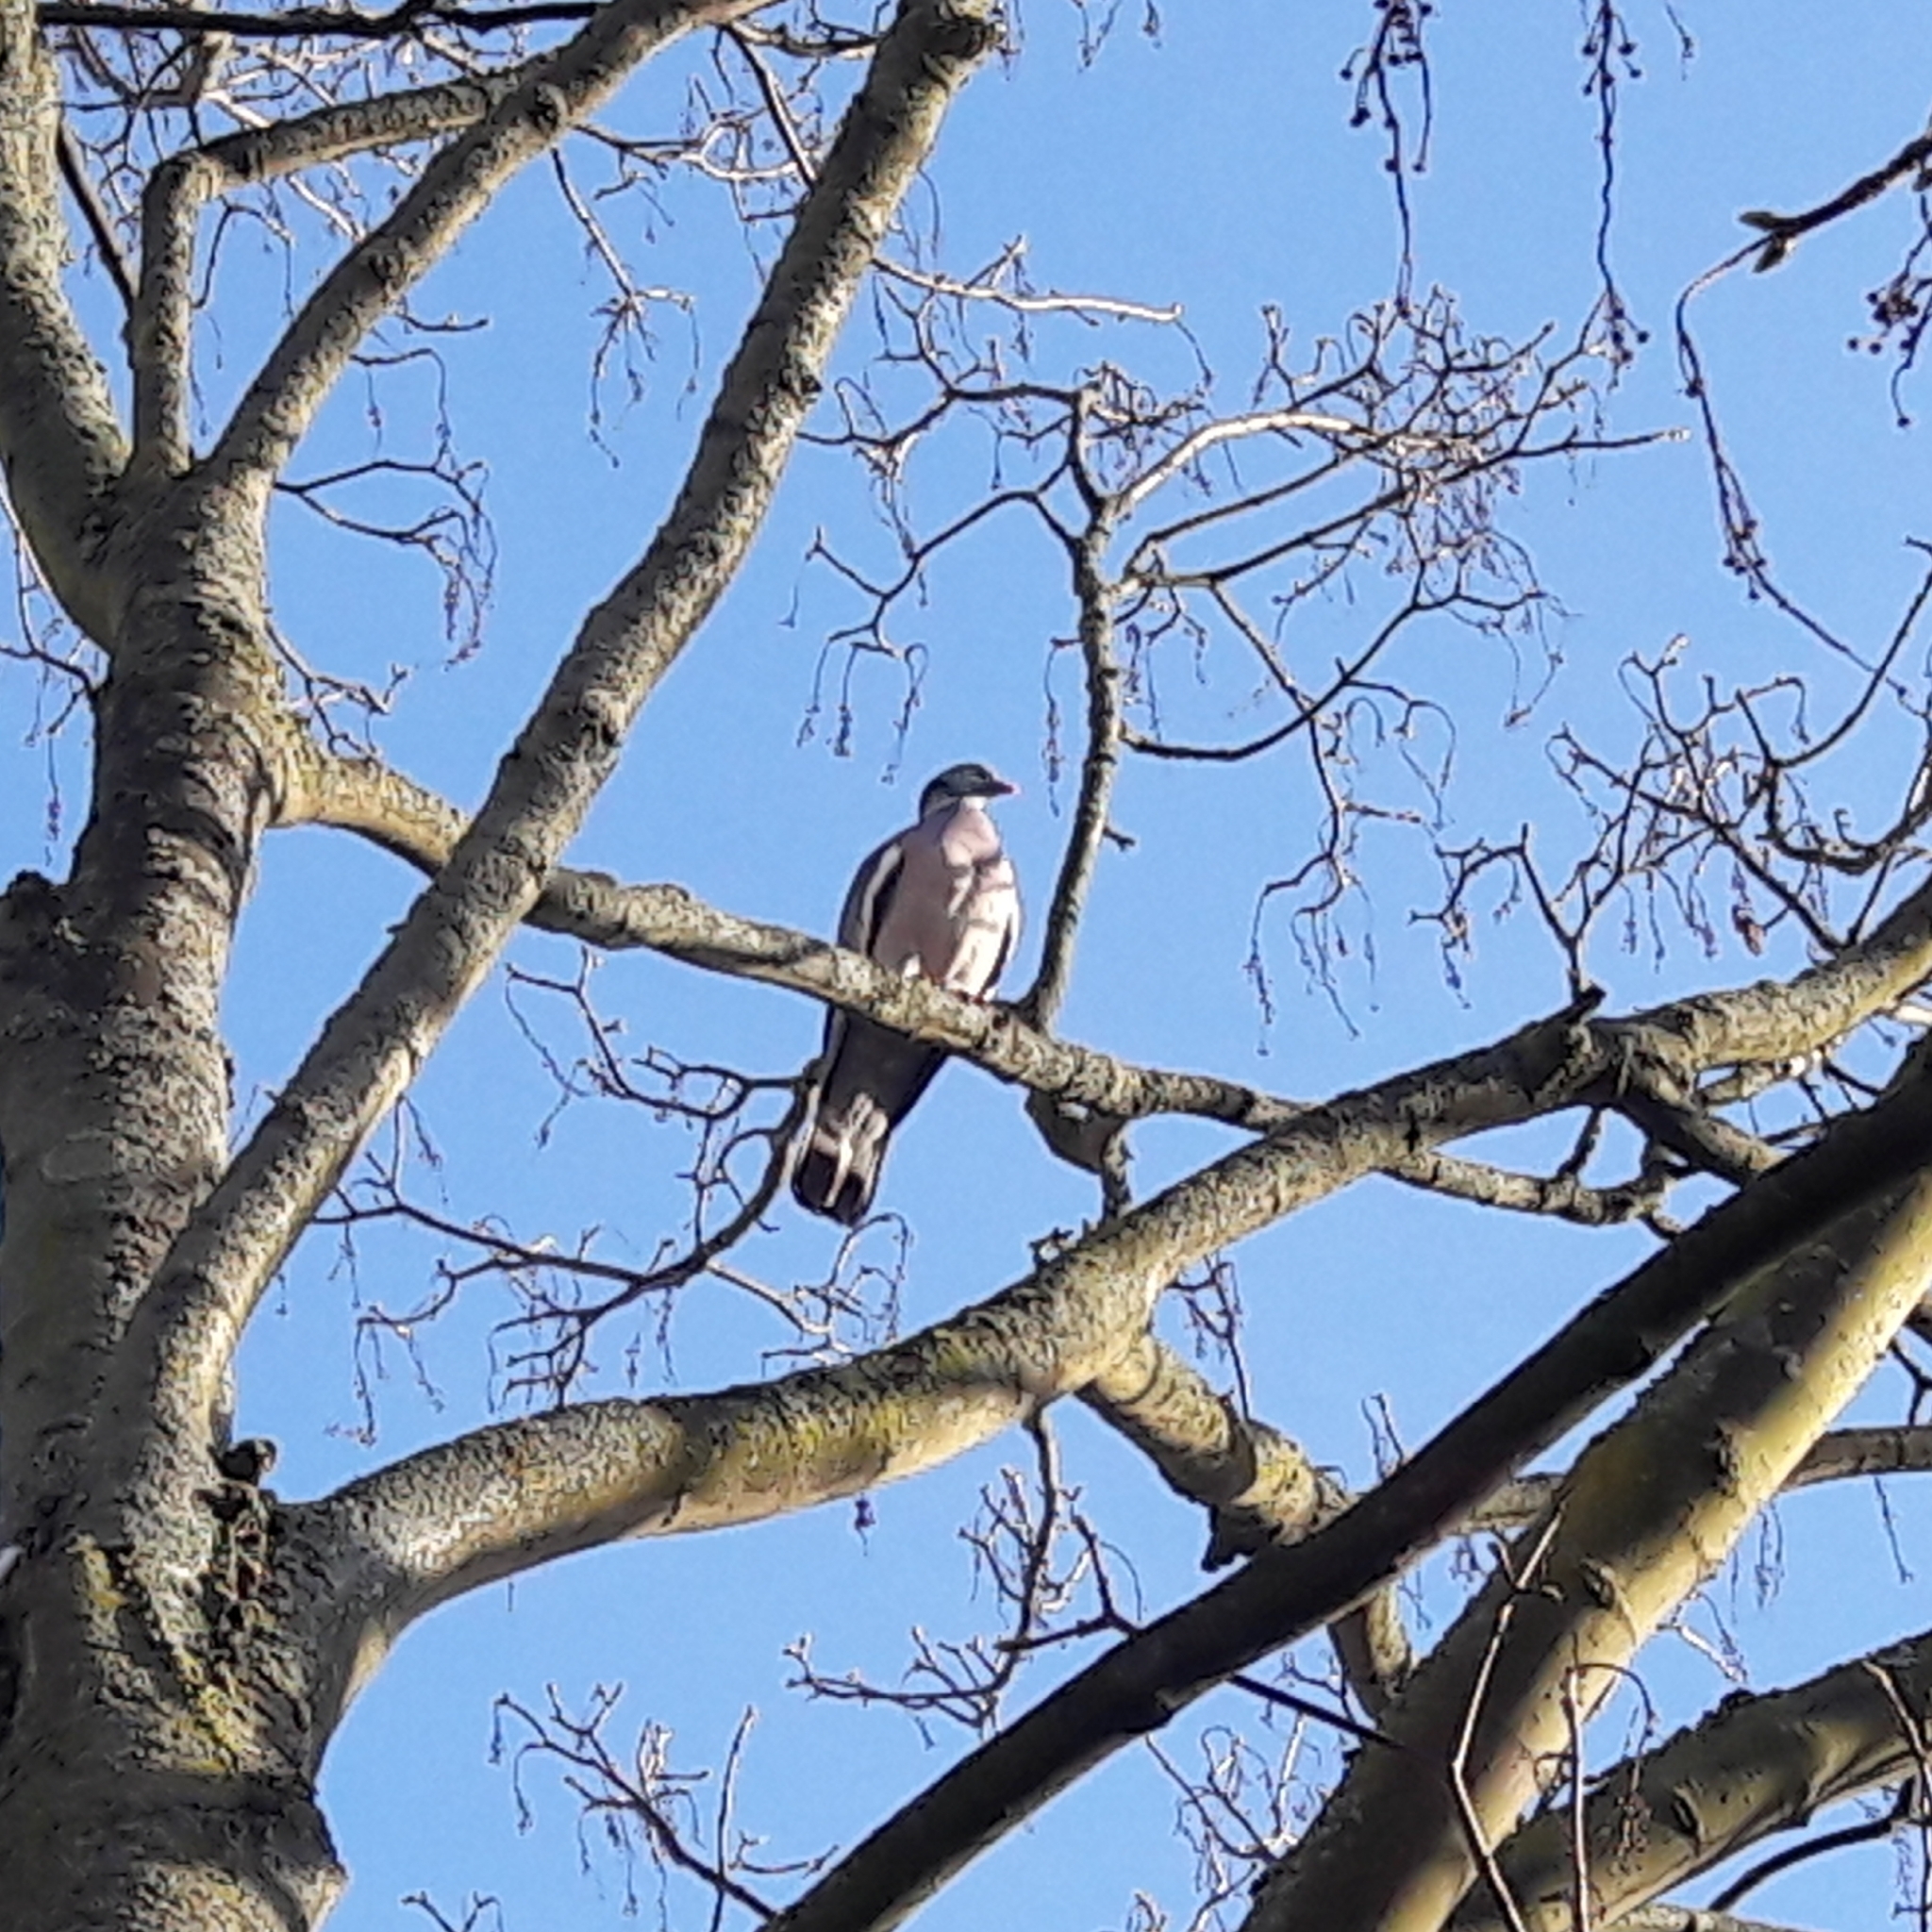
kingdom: Animalia
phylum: Chordata
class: Aves
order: Columbiformes
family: Columbidae
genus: Columba
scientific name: Columba palumbus
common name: Common wood pigeon
